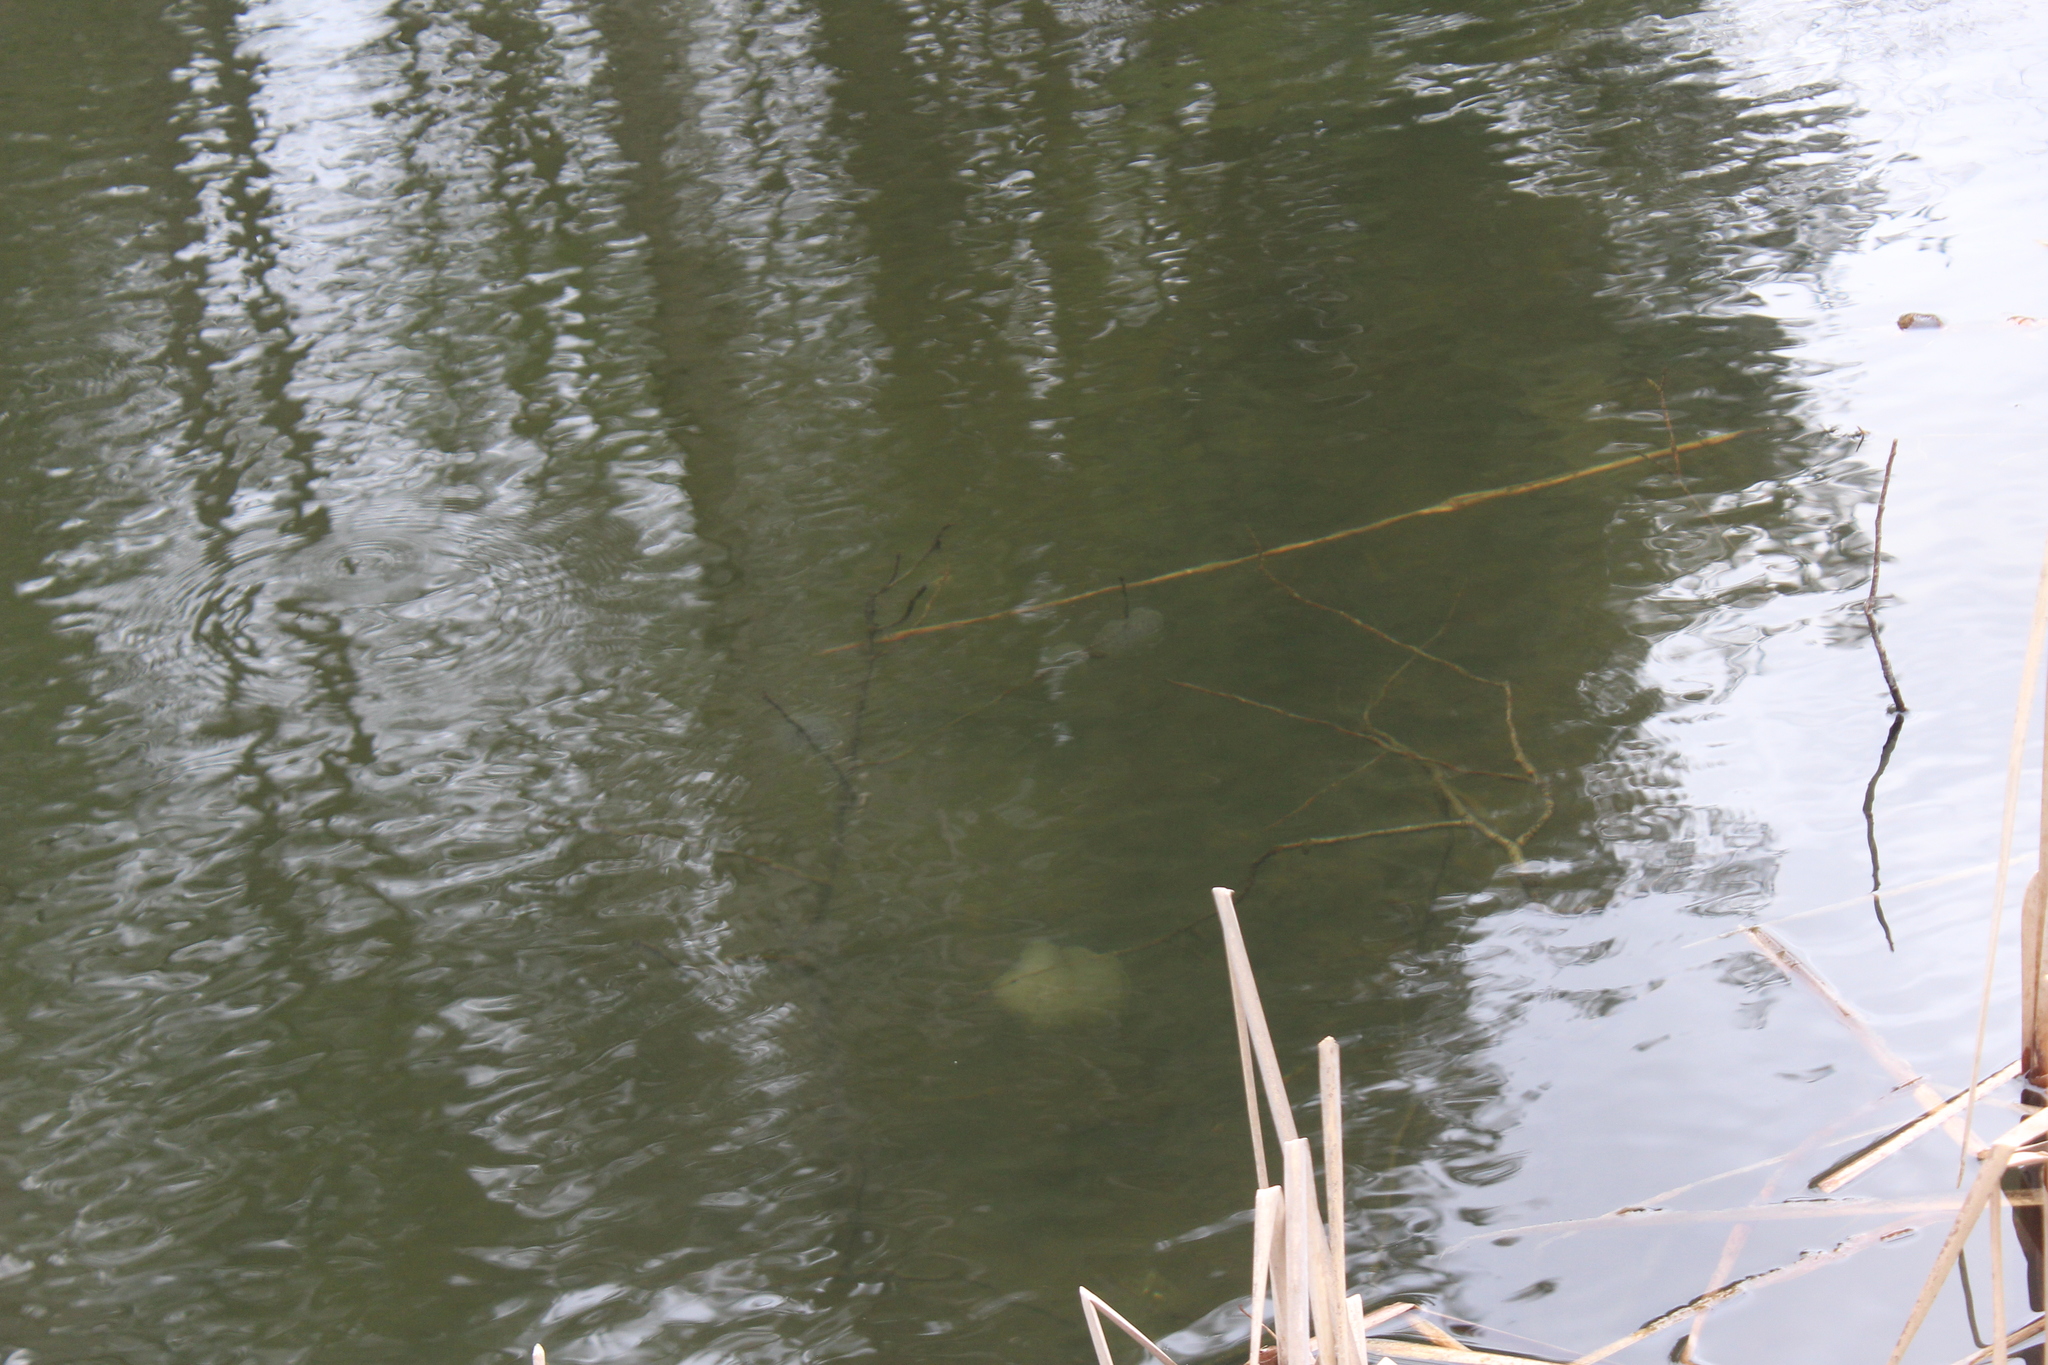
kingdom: Animalia
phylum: Chordata
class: Amphibia
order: Caudata
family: Ambystomatidae
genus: Ambystoma
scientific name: Ambystoma maculatum
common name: Spotted salamander
